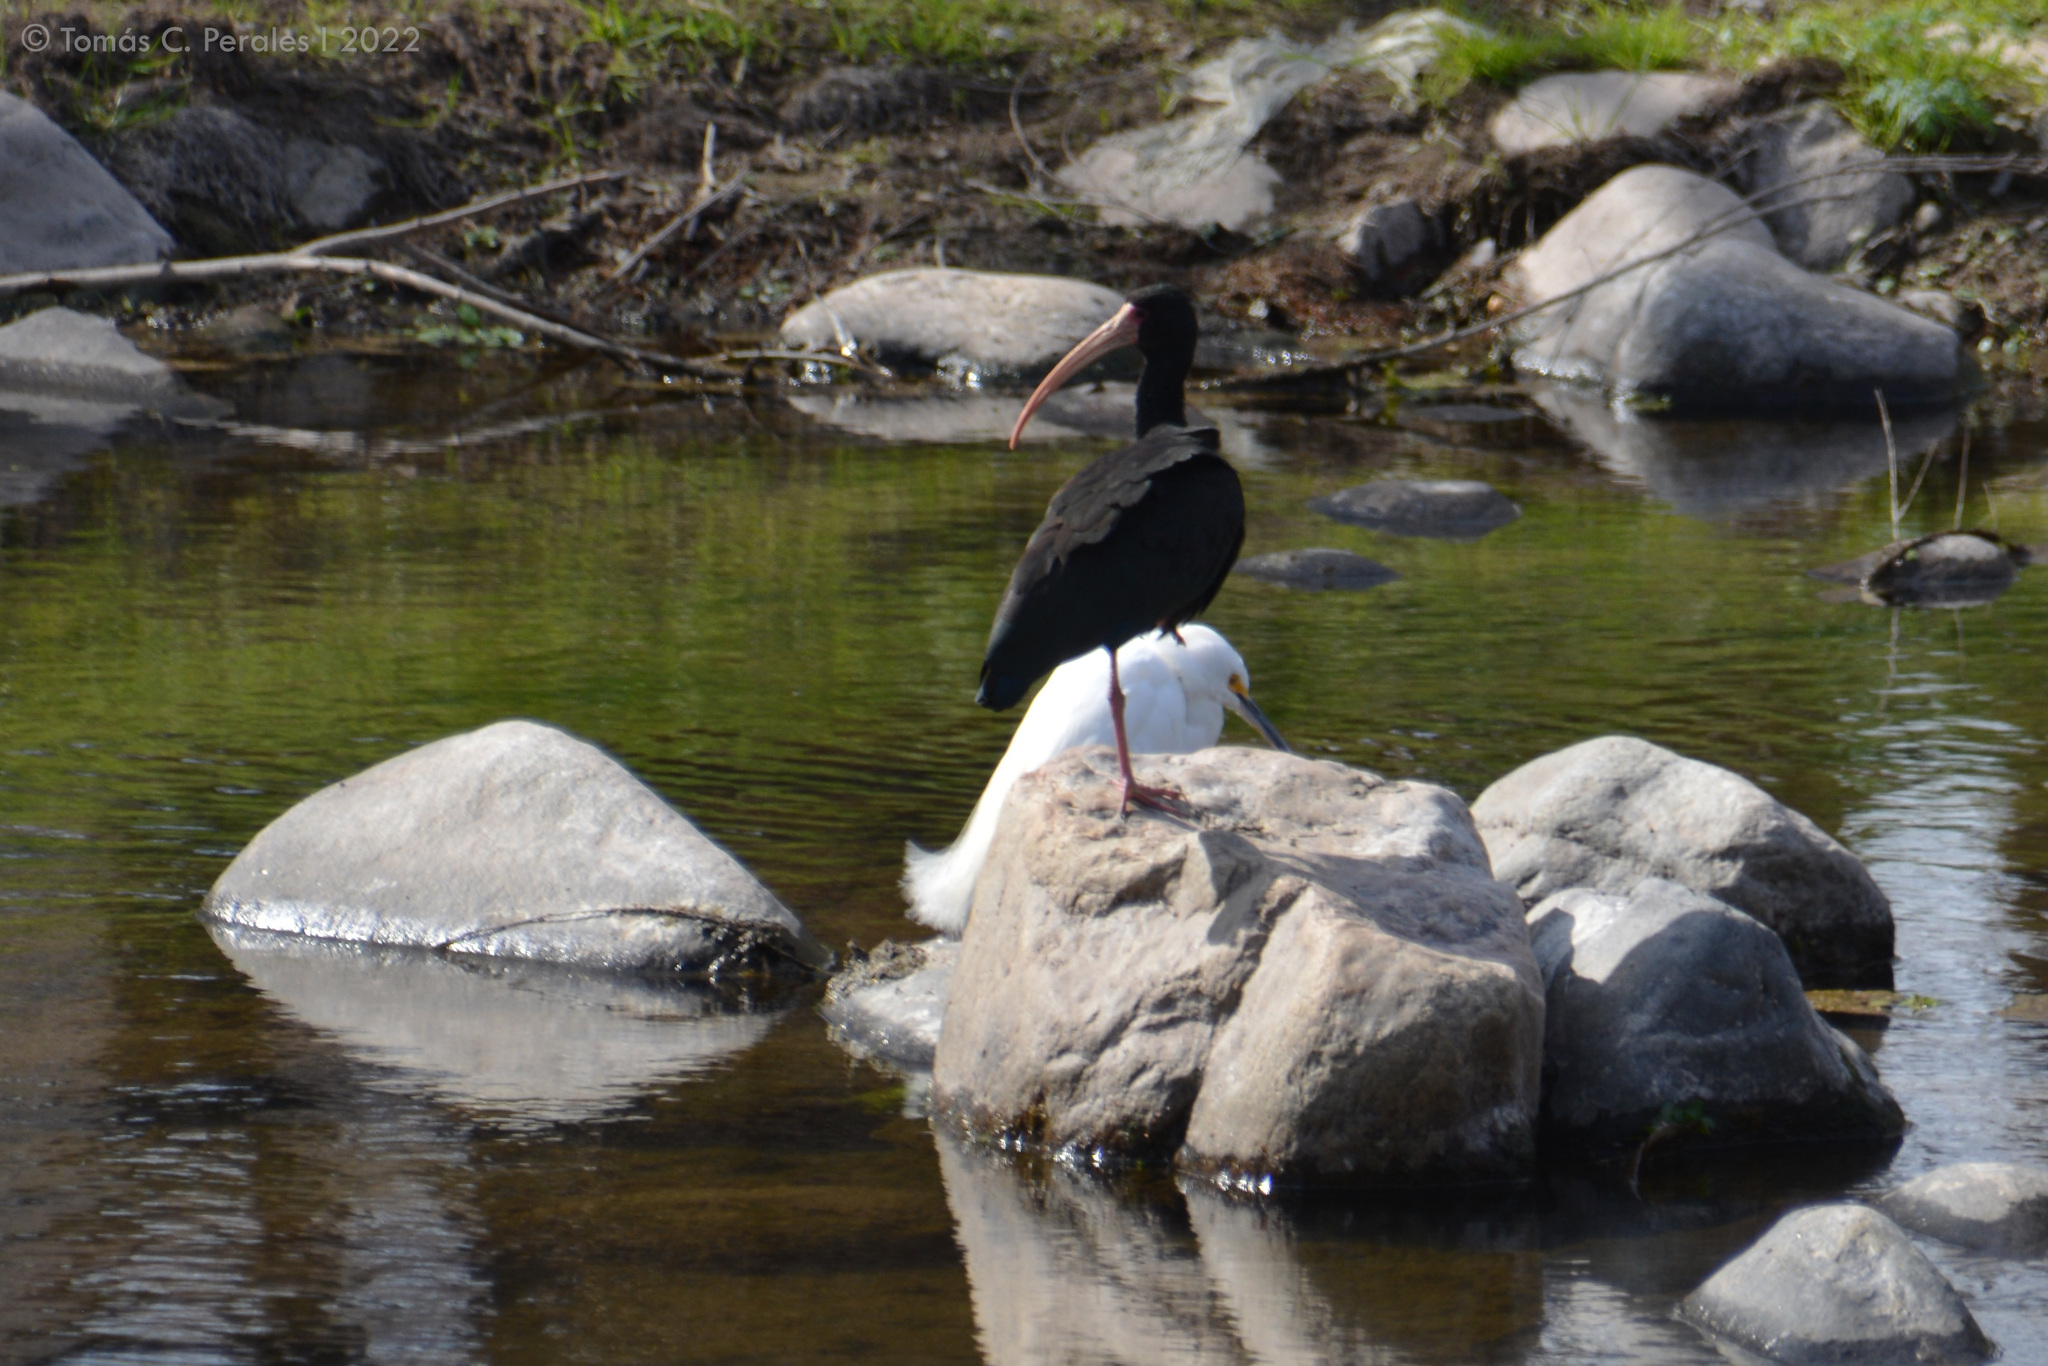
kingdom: Animalia
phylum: Chordata
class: Aves
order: Pelecaniformes
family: Threskiornithidae
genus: Phimosus
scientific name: Phimosus infuscatus
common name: Bare-faced ibis
